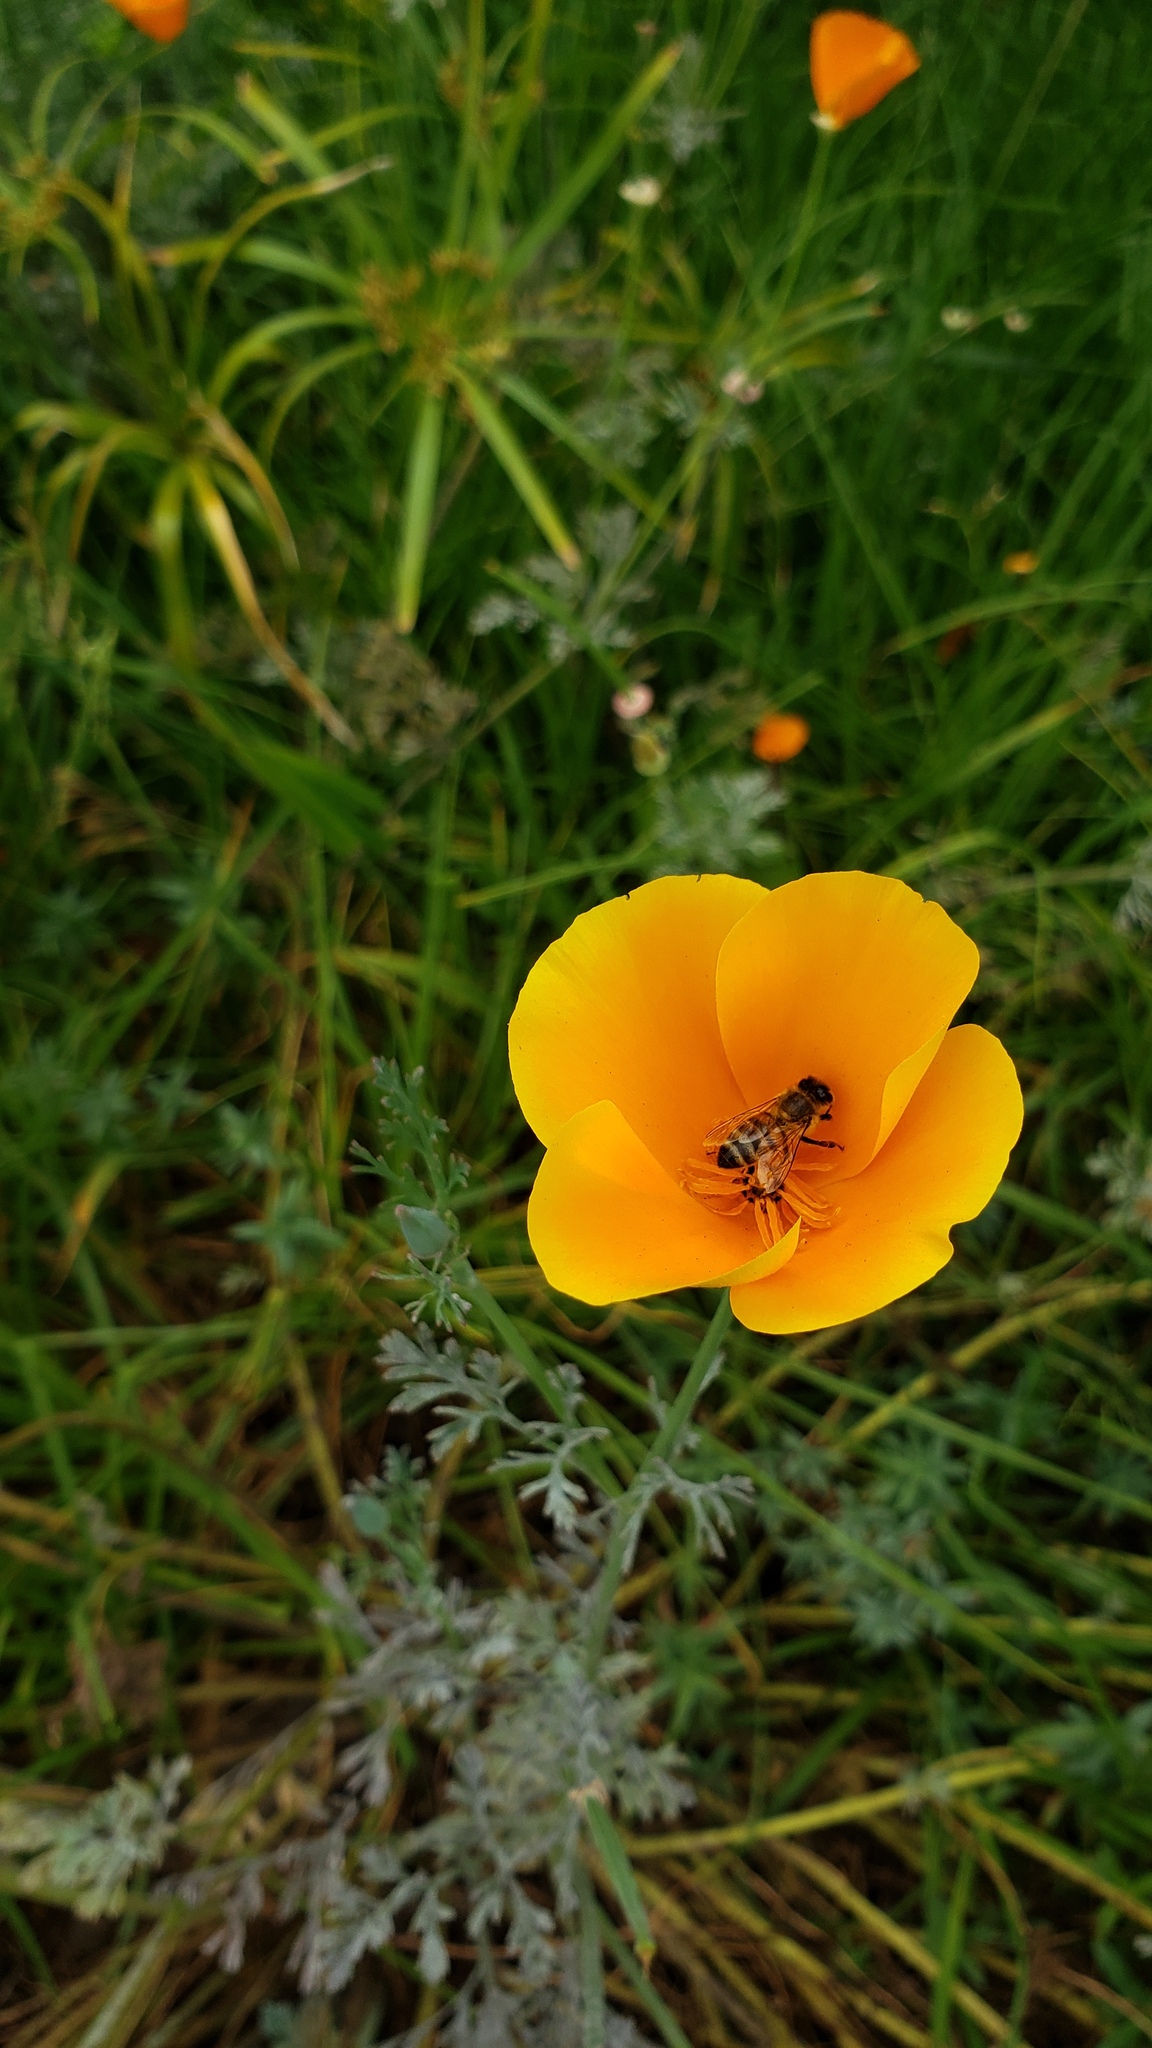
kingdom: Animalia
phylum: Arthropoda
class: Insecta
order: Hymenoptera
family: Apidae
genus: Apis
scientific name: Apis mellifera
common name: Honey bee
